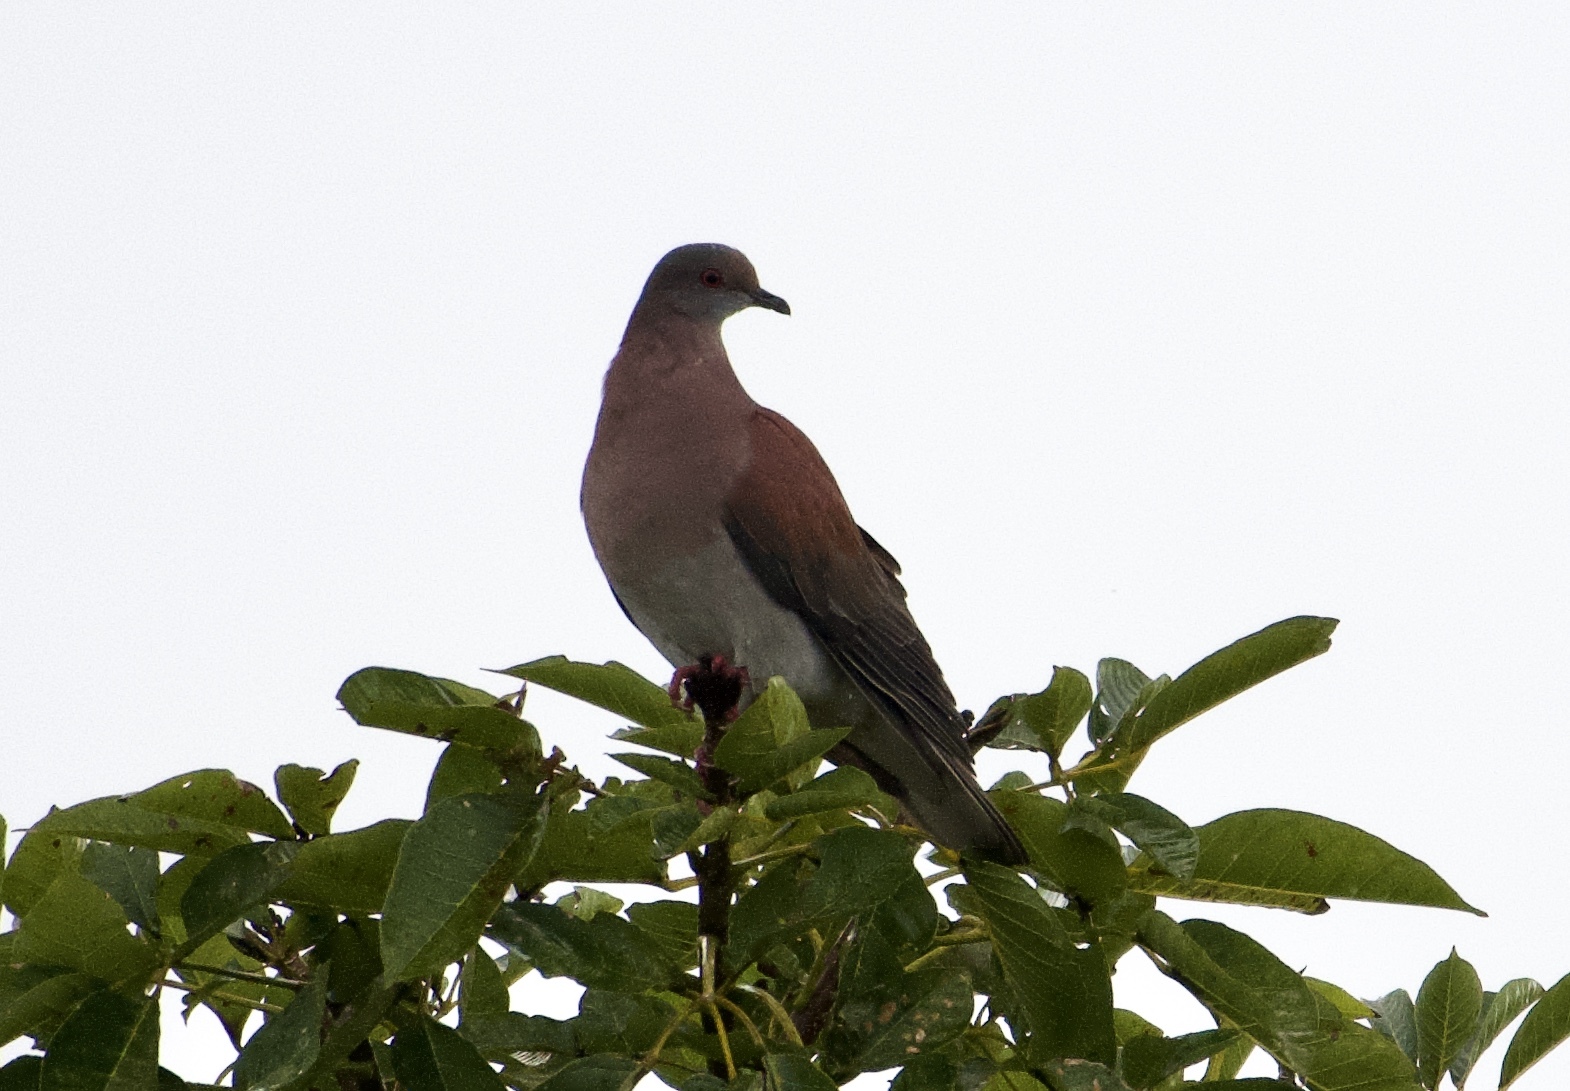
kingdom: Animalia
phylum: Chordata
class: Aves
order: Columbiformes
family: Columbidae
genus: Patagioenas
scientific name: Patagioenas cayennensis
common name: Pale-vented pigeon
